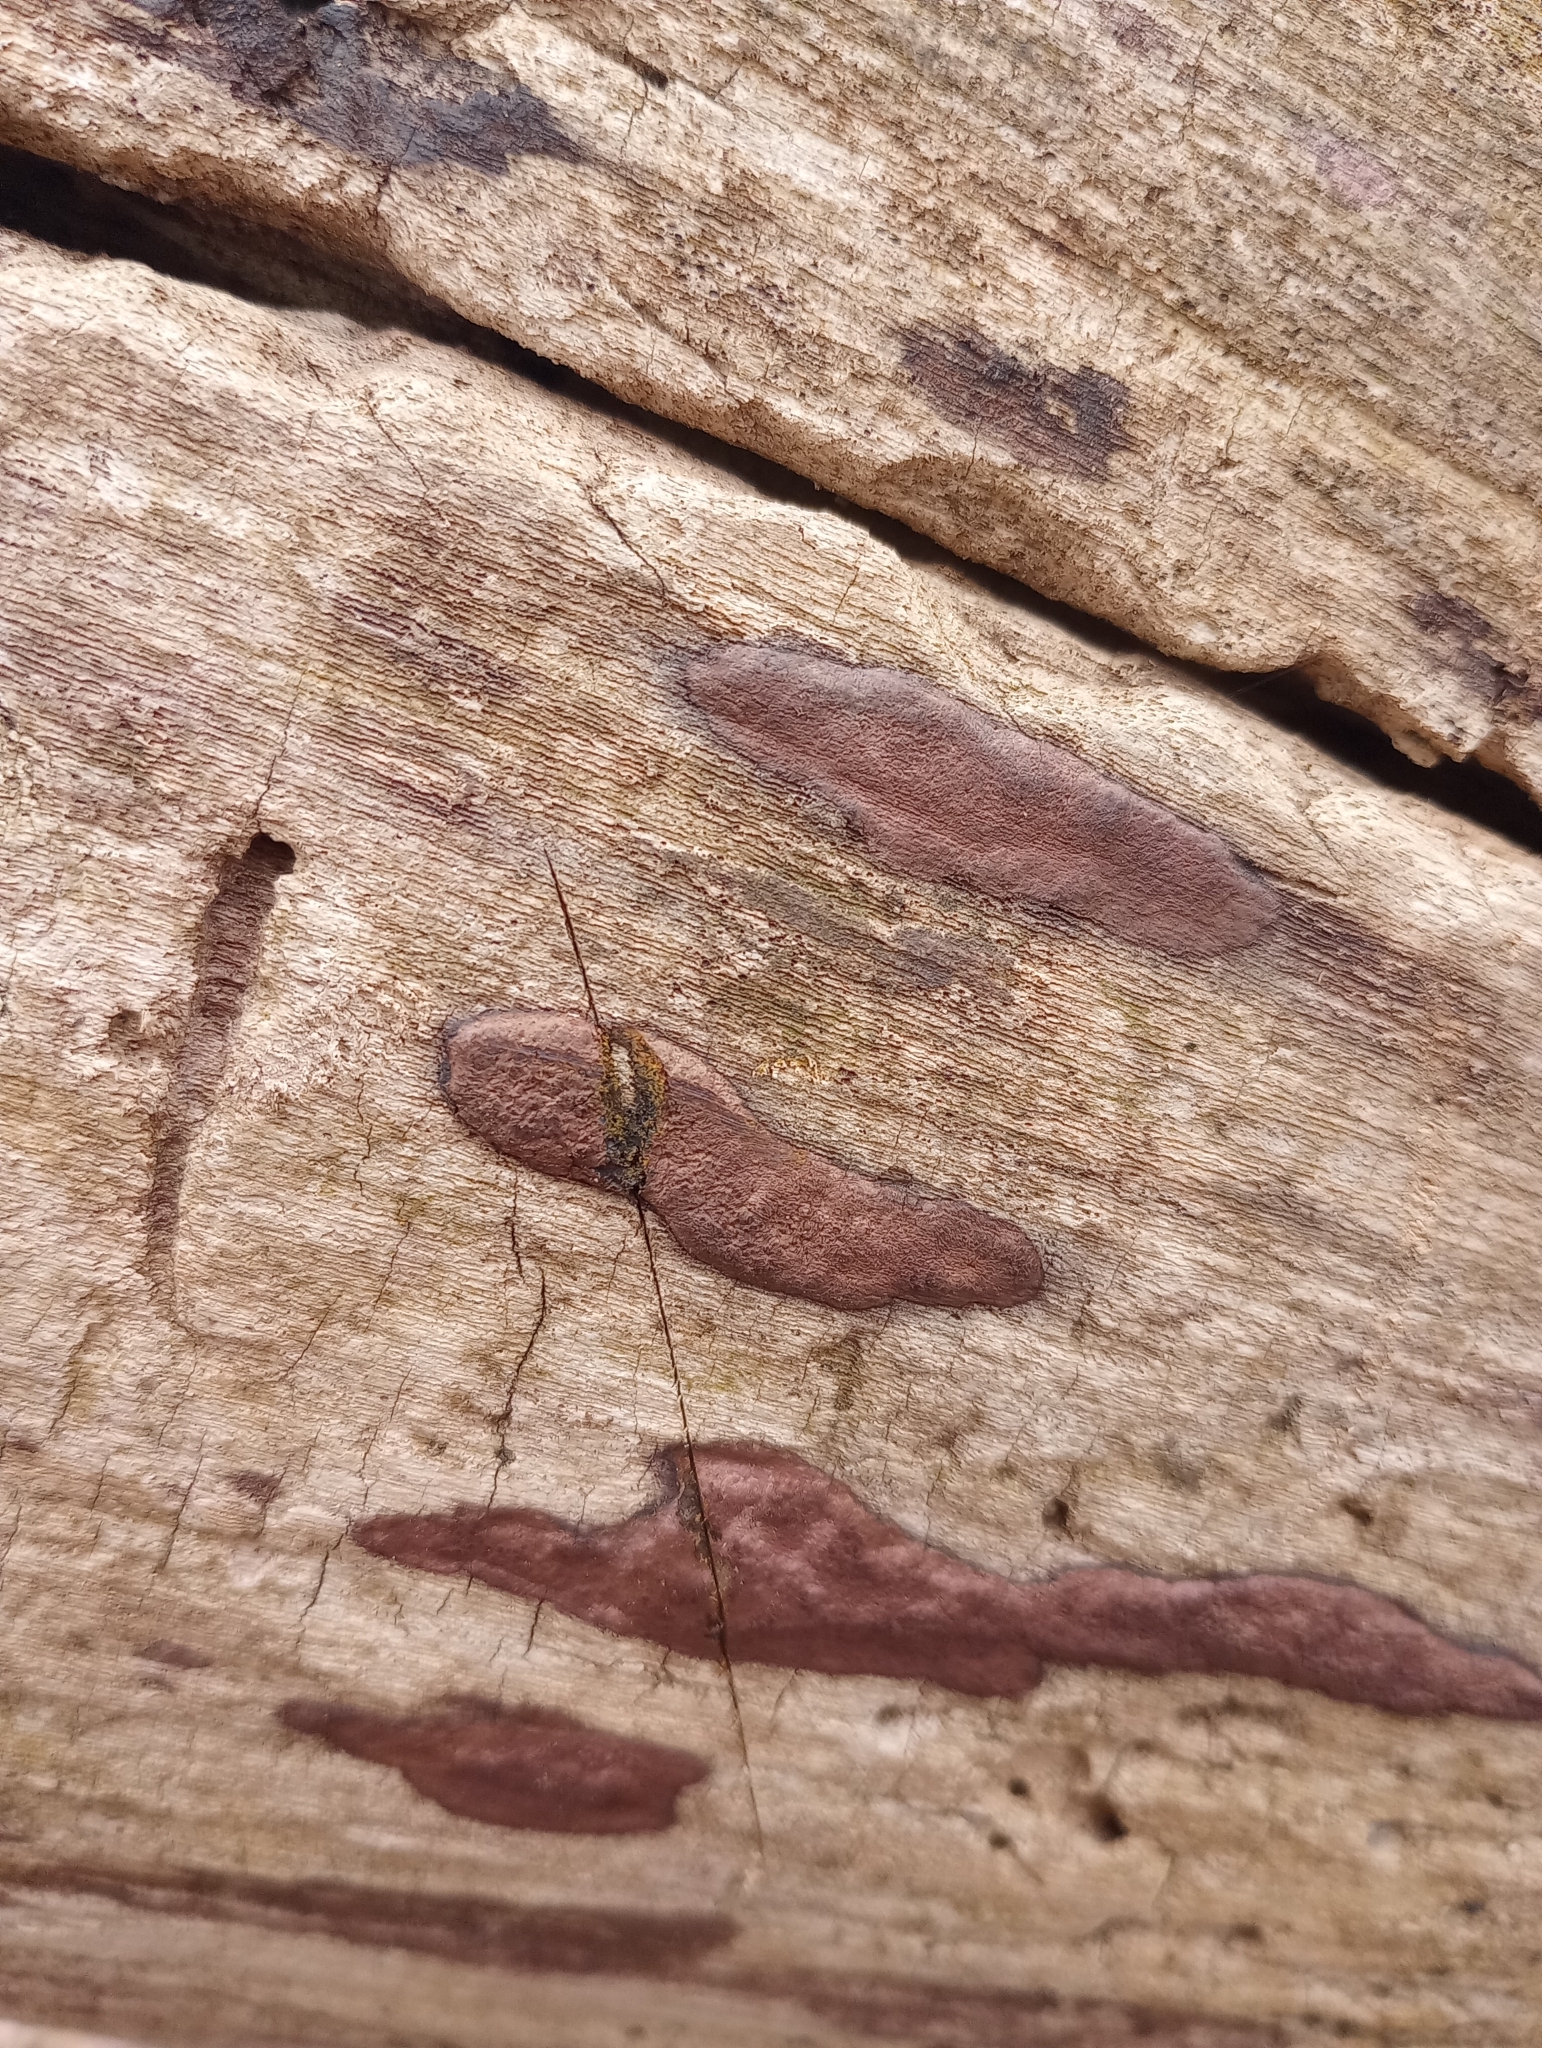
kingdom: Fungi
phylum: Ascomycota
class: Sordariomycetes
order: Xylariales
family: Hypoxylaceae
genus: Hypoxylon
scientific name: Hypoxylon rubiginosum
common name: Rusty woodwart
